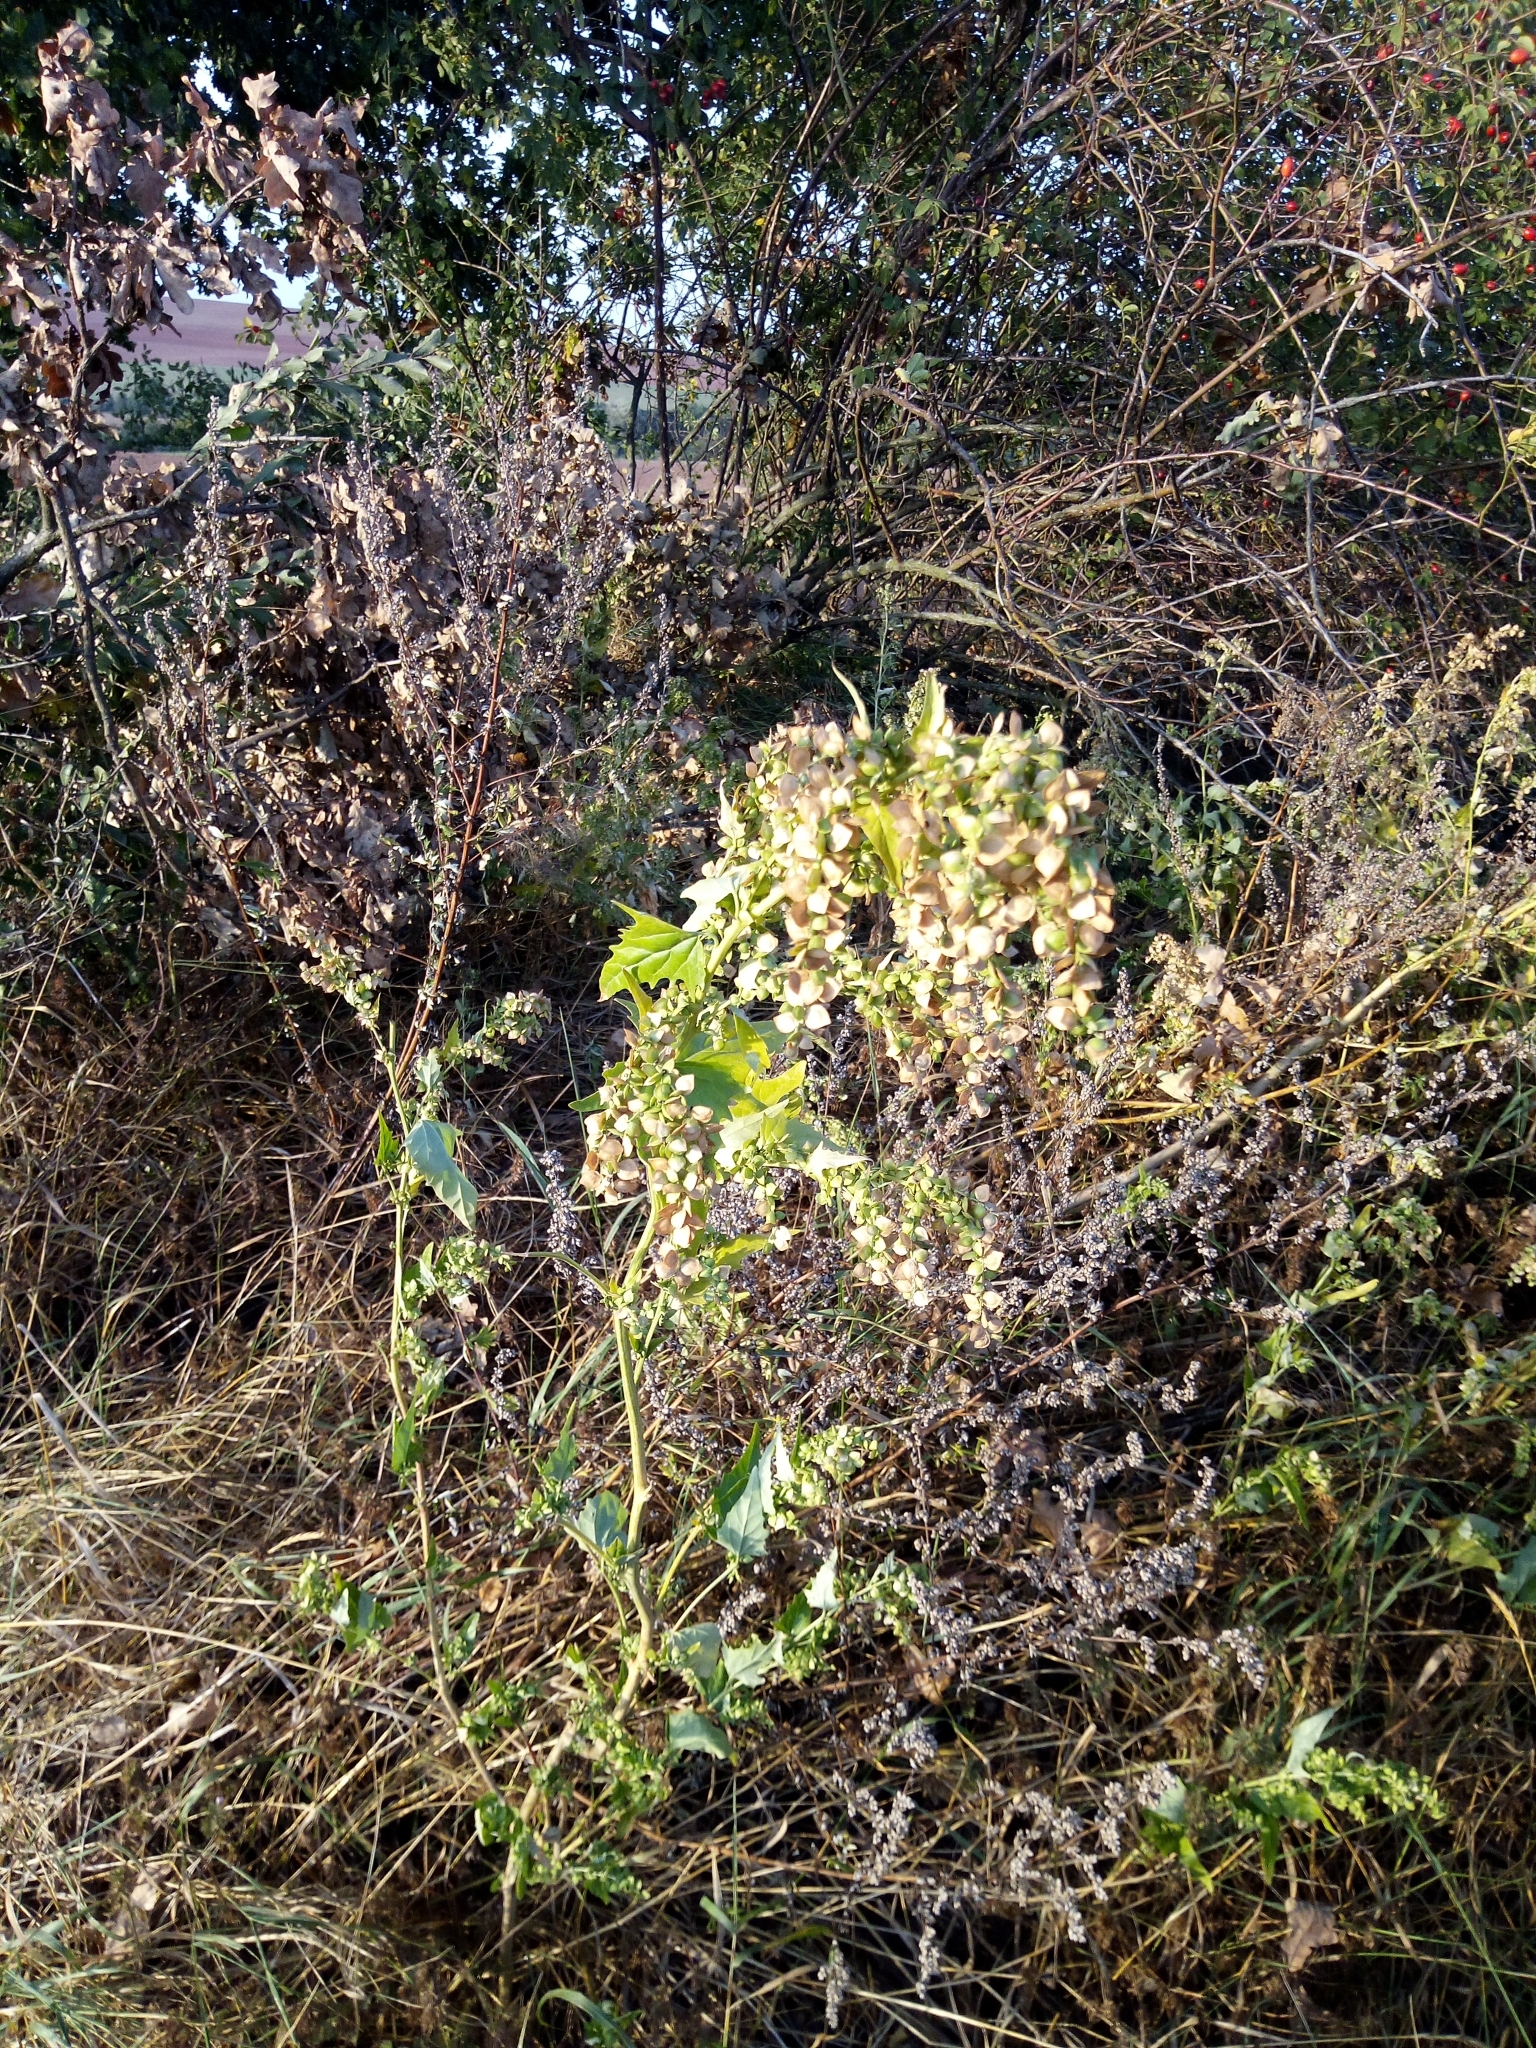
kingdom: Plantae
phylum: Tracheophyta
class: Magnoliopsida
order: Caryophyllales
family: Amaranthaceae
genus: Atriplex
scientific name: Atriplex sagittata
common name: Purple orache
